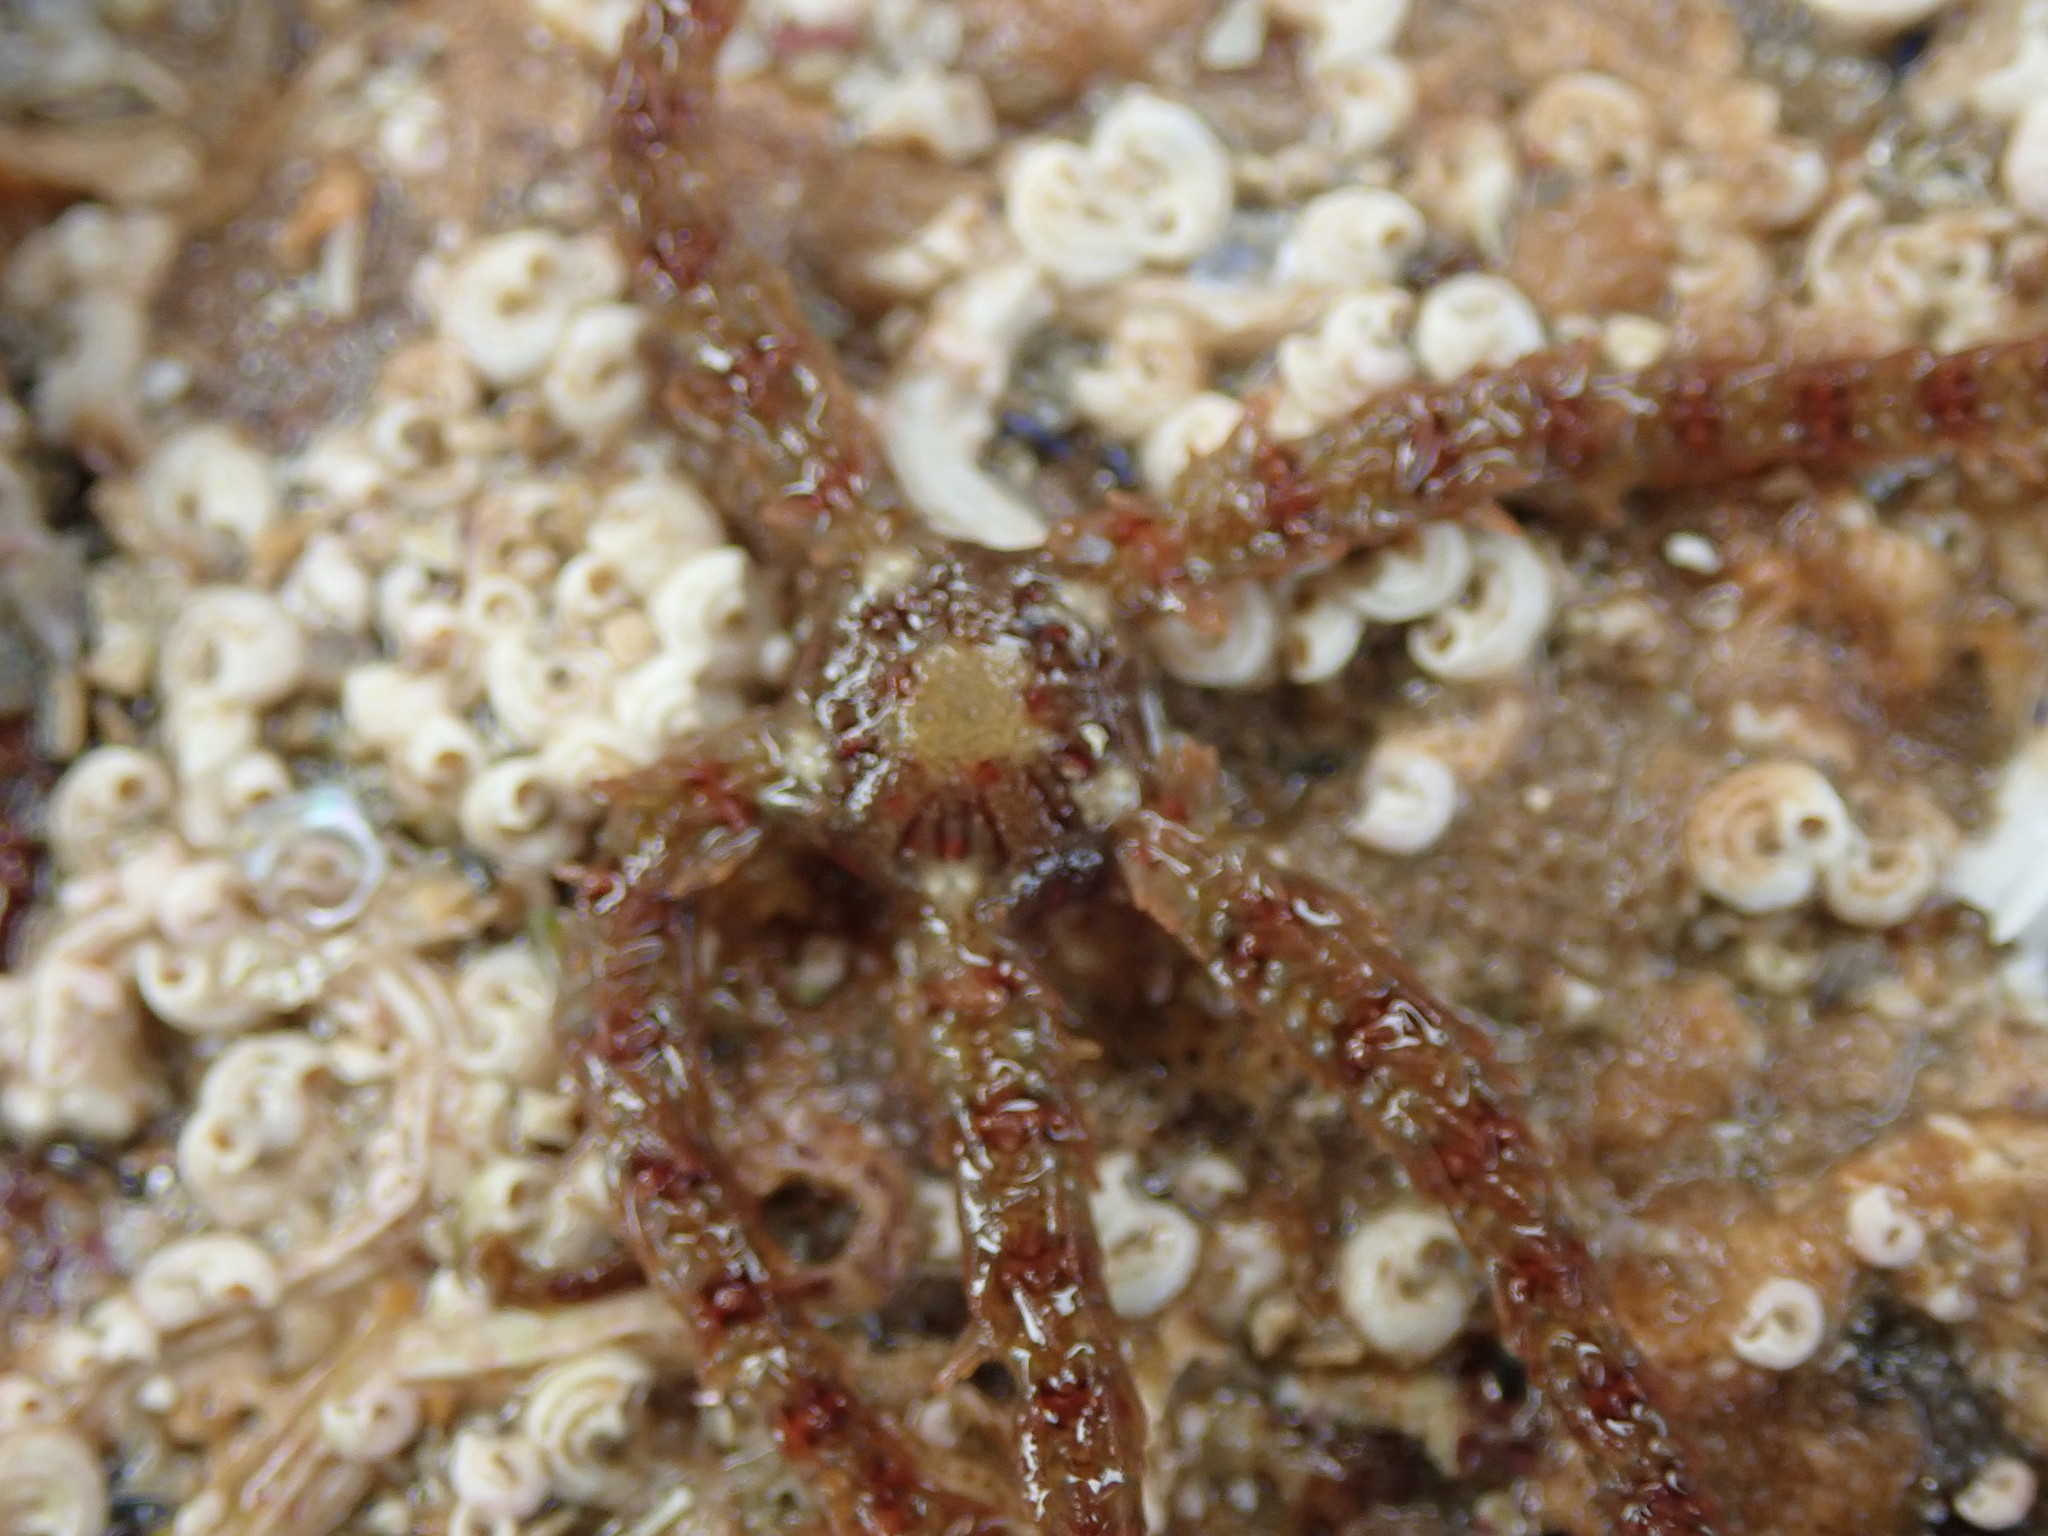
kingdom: Animalia
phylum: Echinodermata
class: Ophiuroidea
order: Amphilepidida
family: Ophiotrichidae
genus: Ophiothrix
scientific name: Ophiothrix fragilis
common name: Common brittlestar
